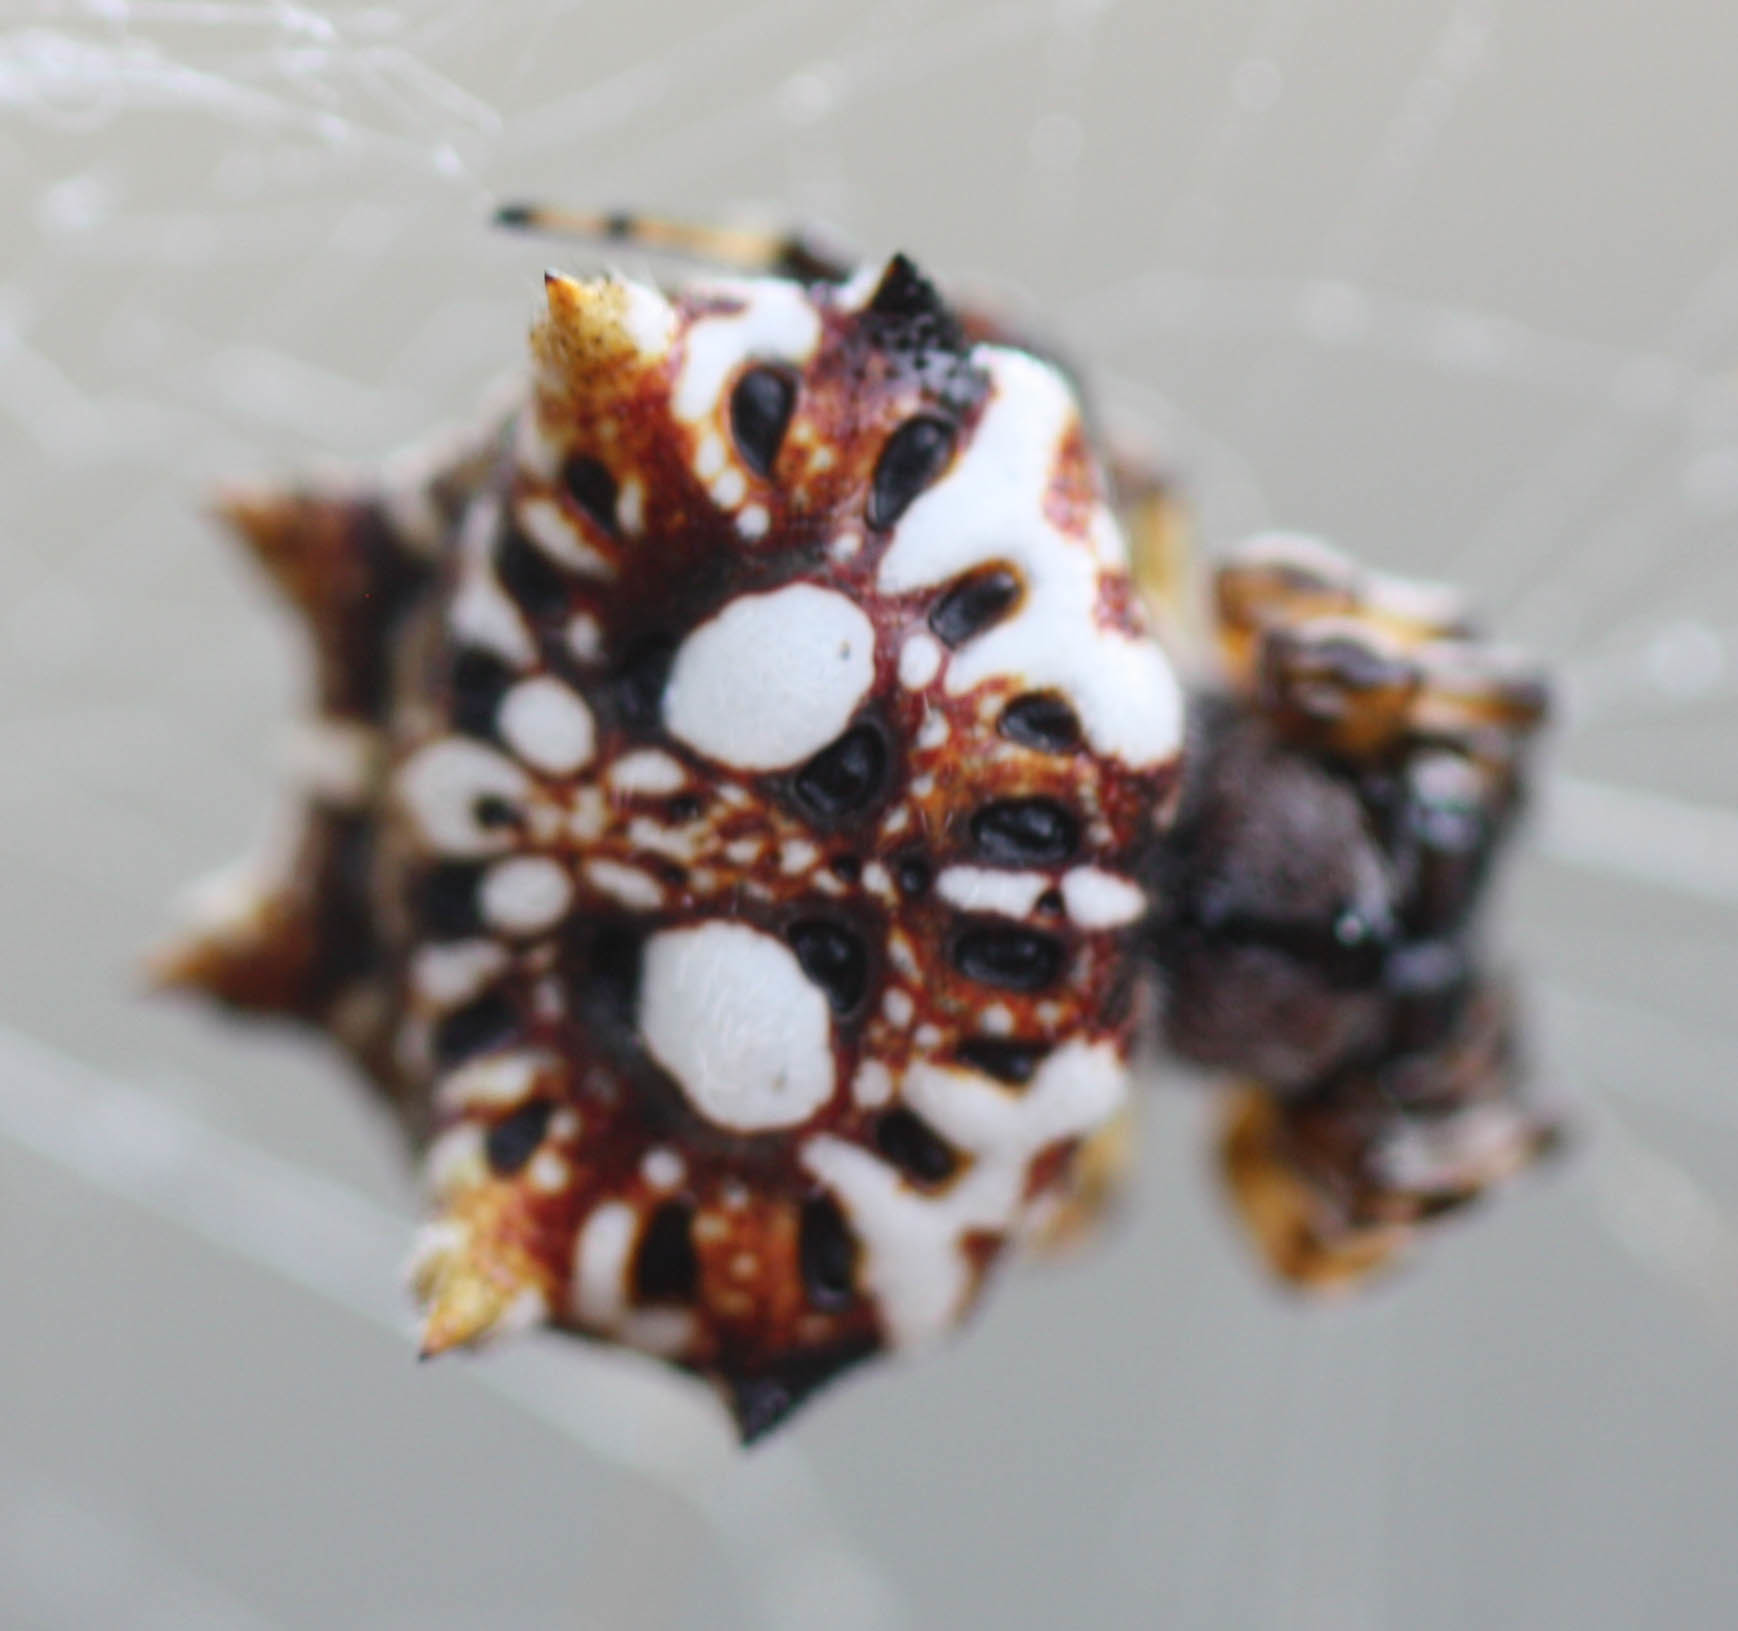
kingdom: Animalia
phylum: Arthropoda
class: Arachnida
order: Araneae
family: Araneidae
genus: Thelacantha
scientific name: Thelacantha brevispina
